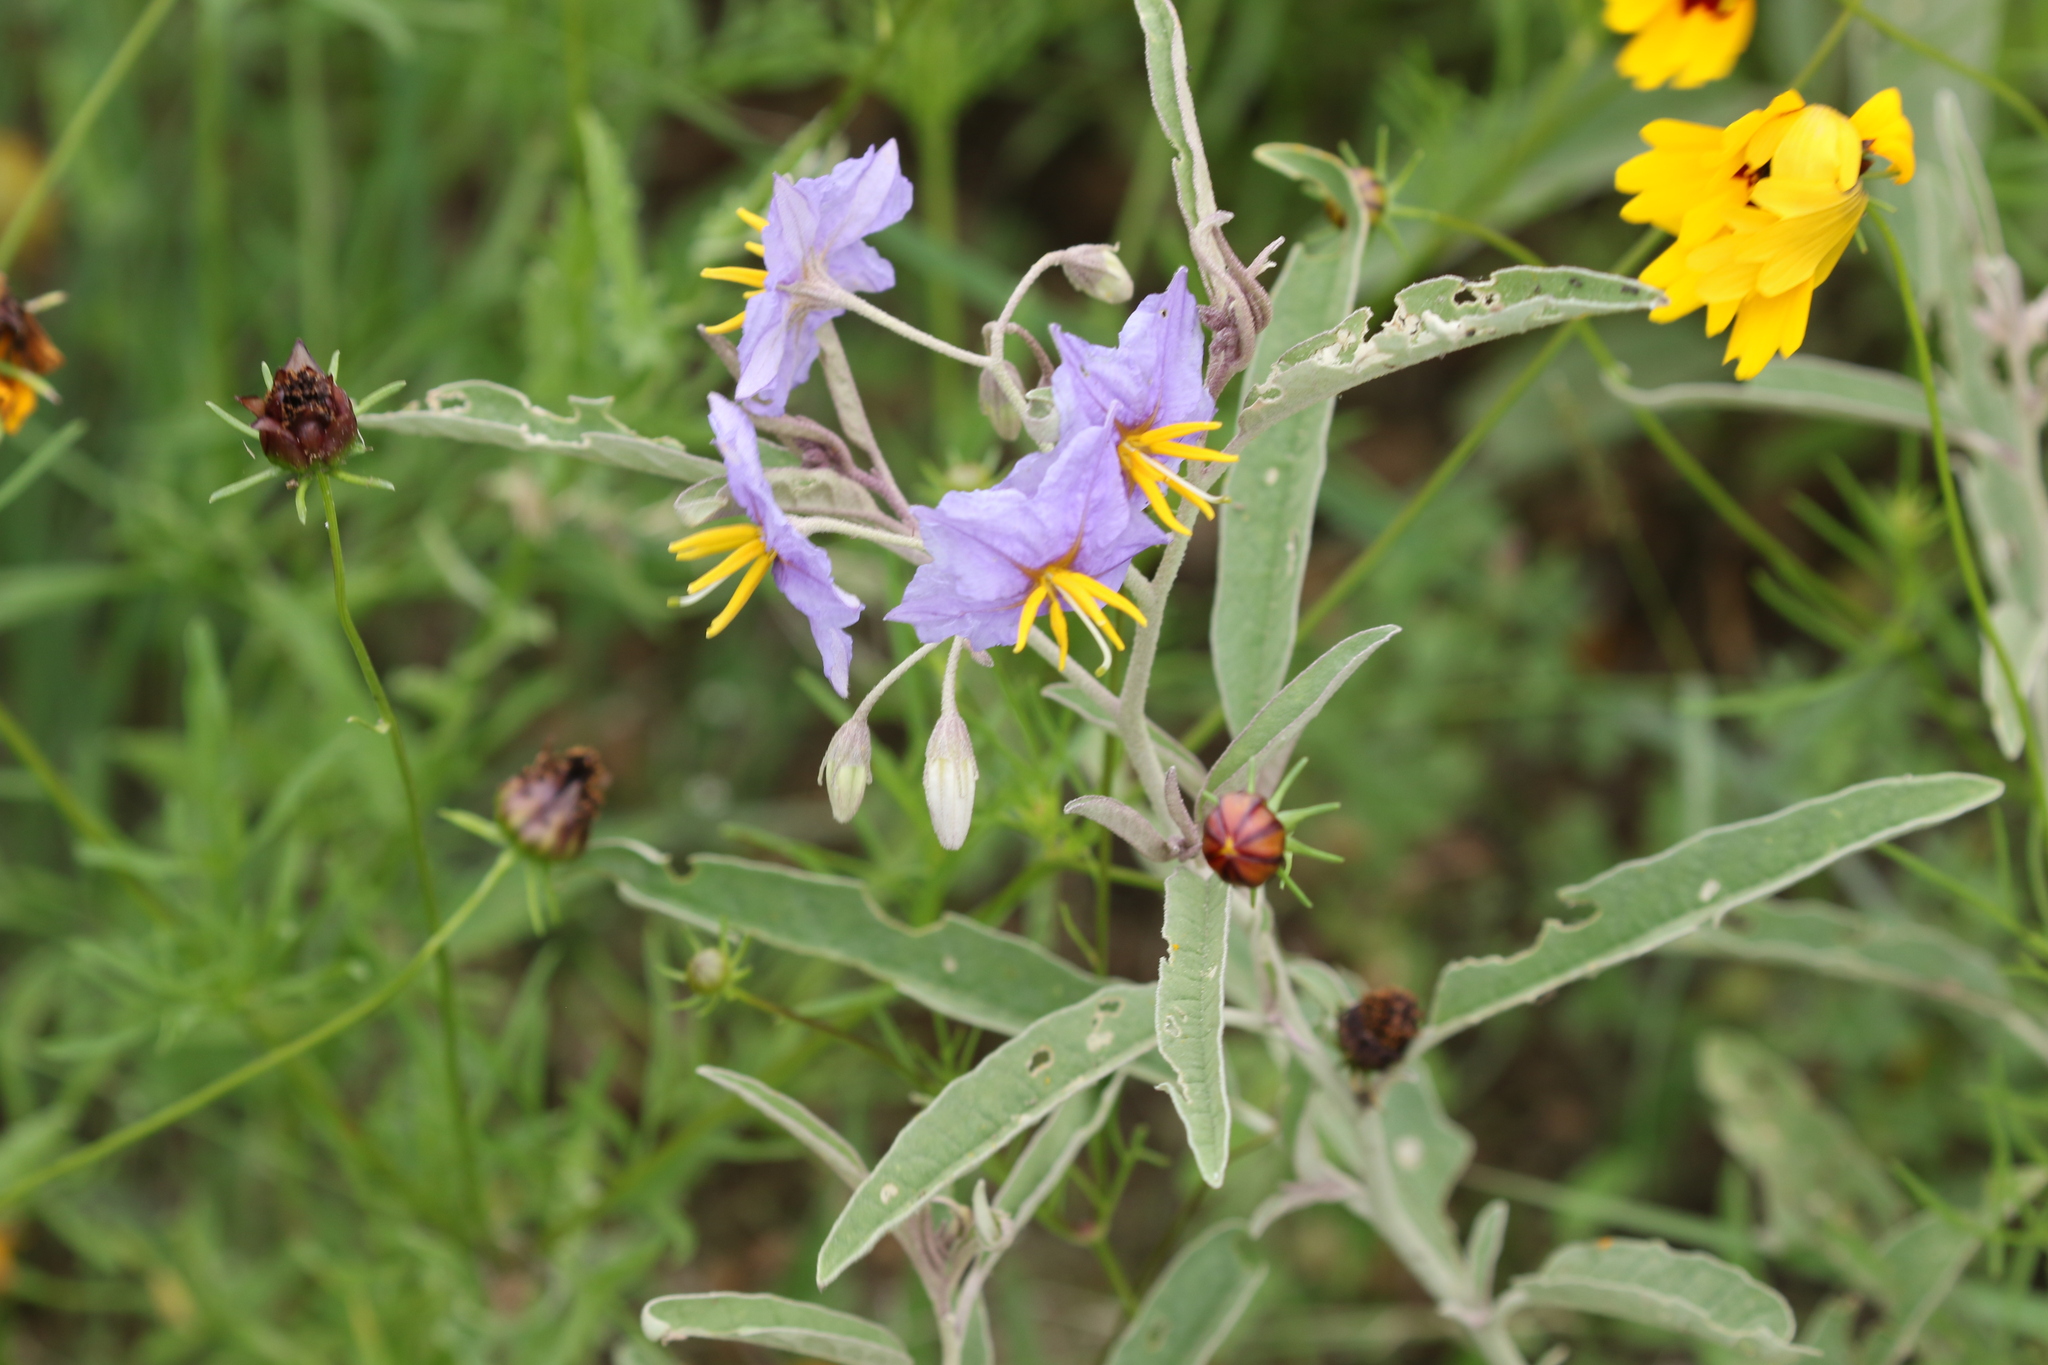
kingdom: Plantae
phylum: Tracheophyta
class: Magnoliopsida
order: Solanales
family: Solanaceae
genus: Solanum
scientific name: Solanum elaeagnifolium
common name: Silverleaf nightshade
